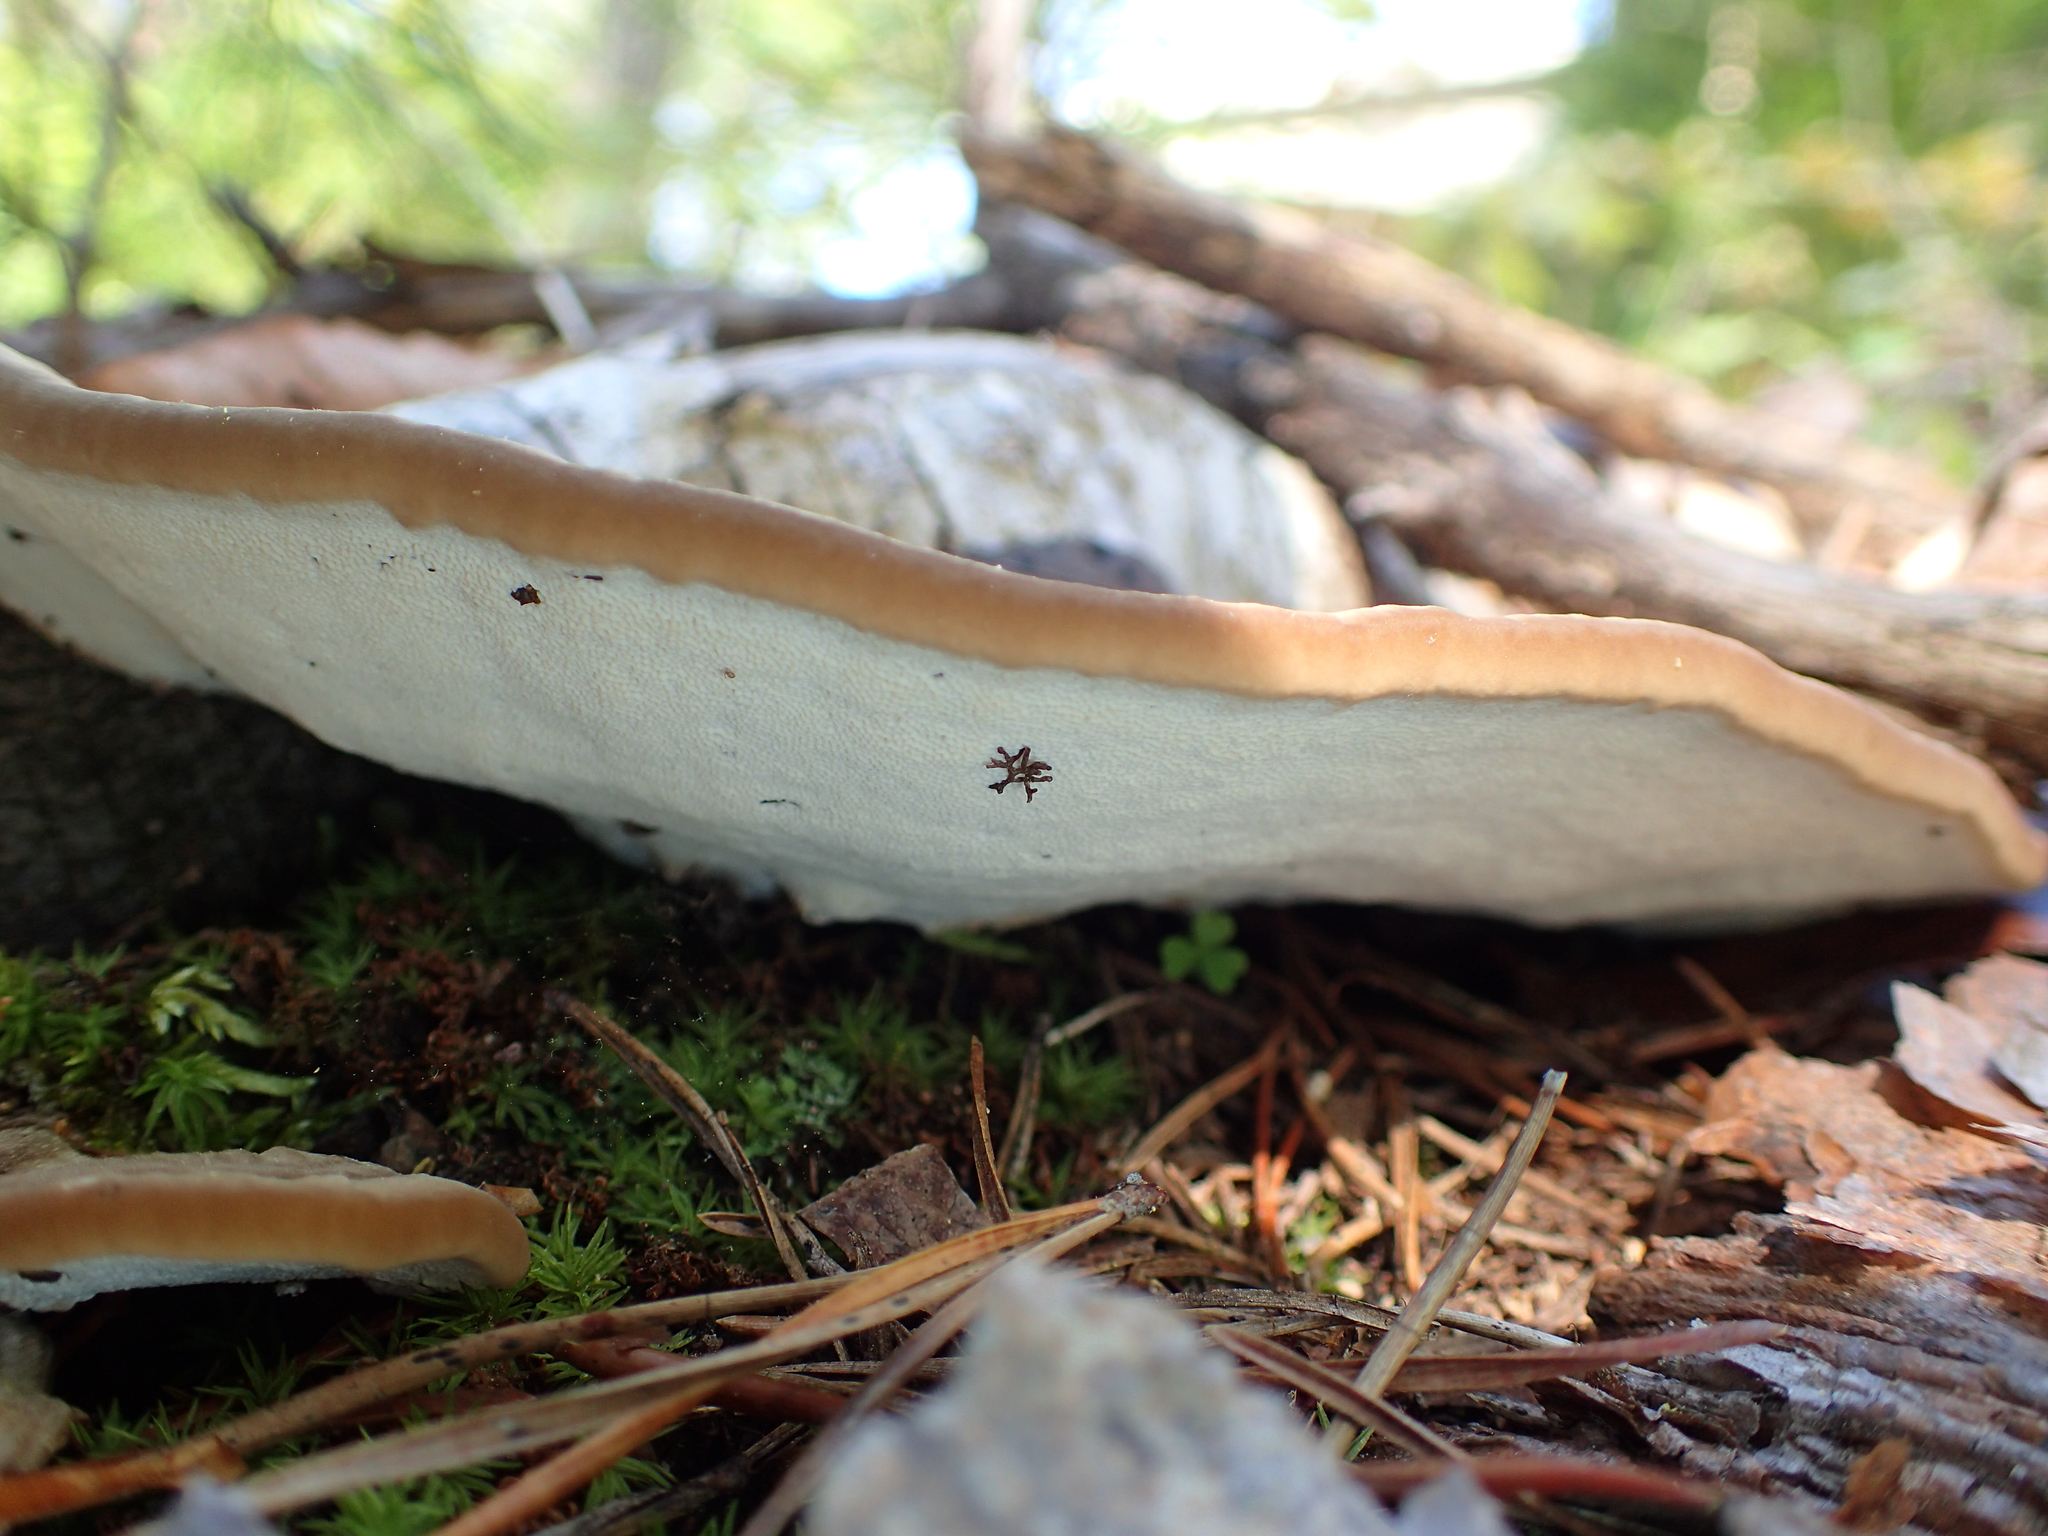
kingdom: Fungi
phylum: Basidiomycota
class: Agaricomycetes
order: Polyporales
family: Polyporaceae
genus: Trametes
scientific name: Trametes lactinea
